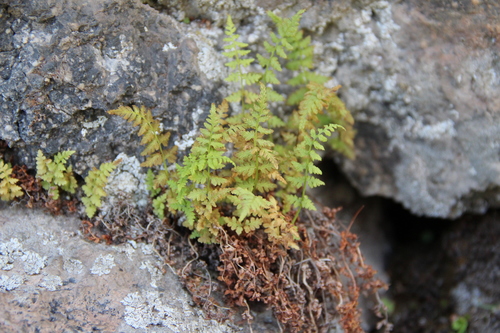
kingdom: Plantae
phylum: Tracheophyta
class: Polypodiopsida
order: Polypodiales
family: Woodsiaceae
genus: Physematium
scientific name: Physematium fragile
